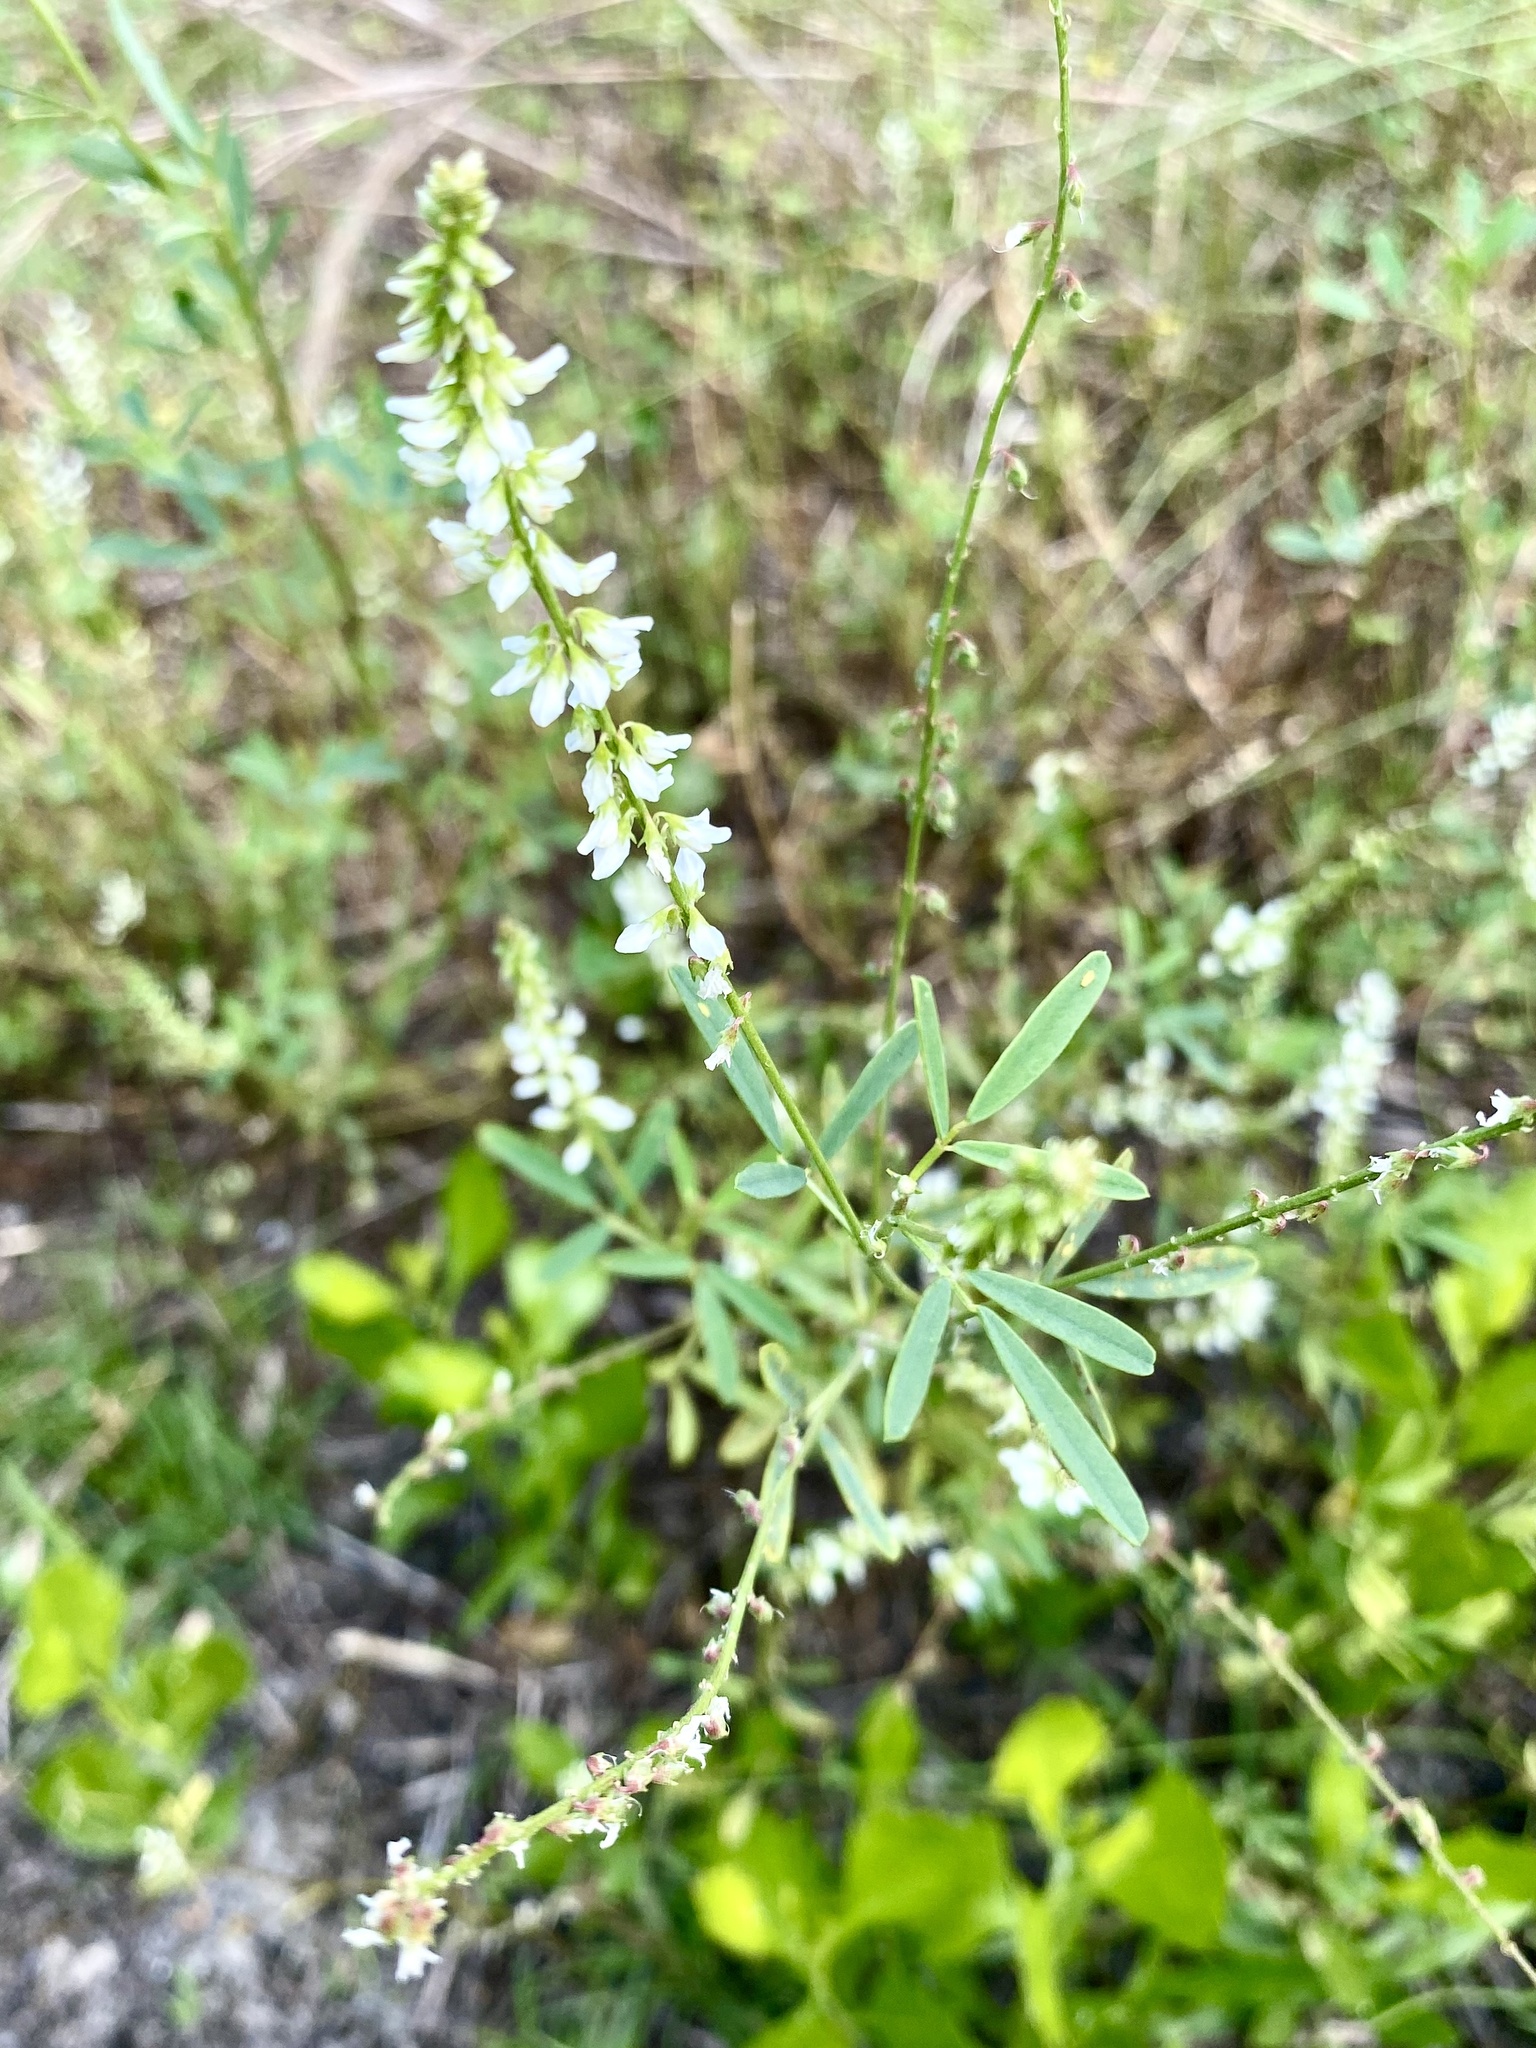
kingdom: Plantae
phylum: Tracheophyta
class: Magnoliopsida
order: Fabales
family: Fabaceae
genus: Melilotus
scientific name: Melilotus albus
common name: White melilot
